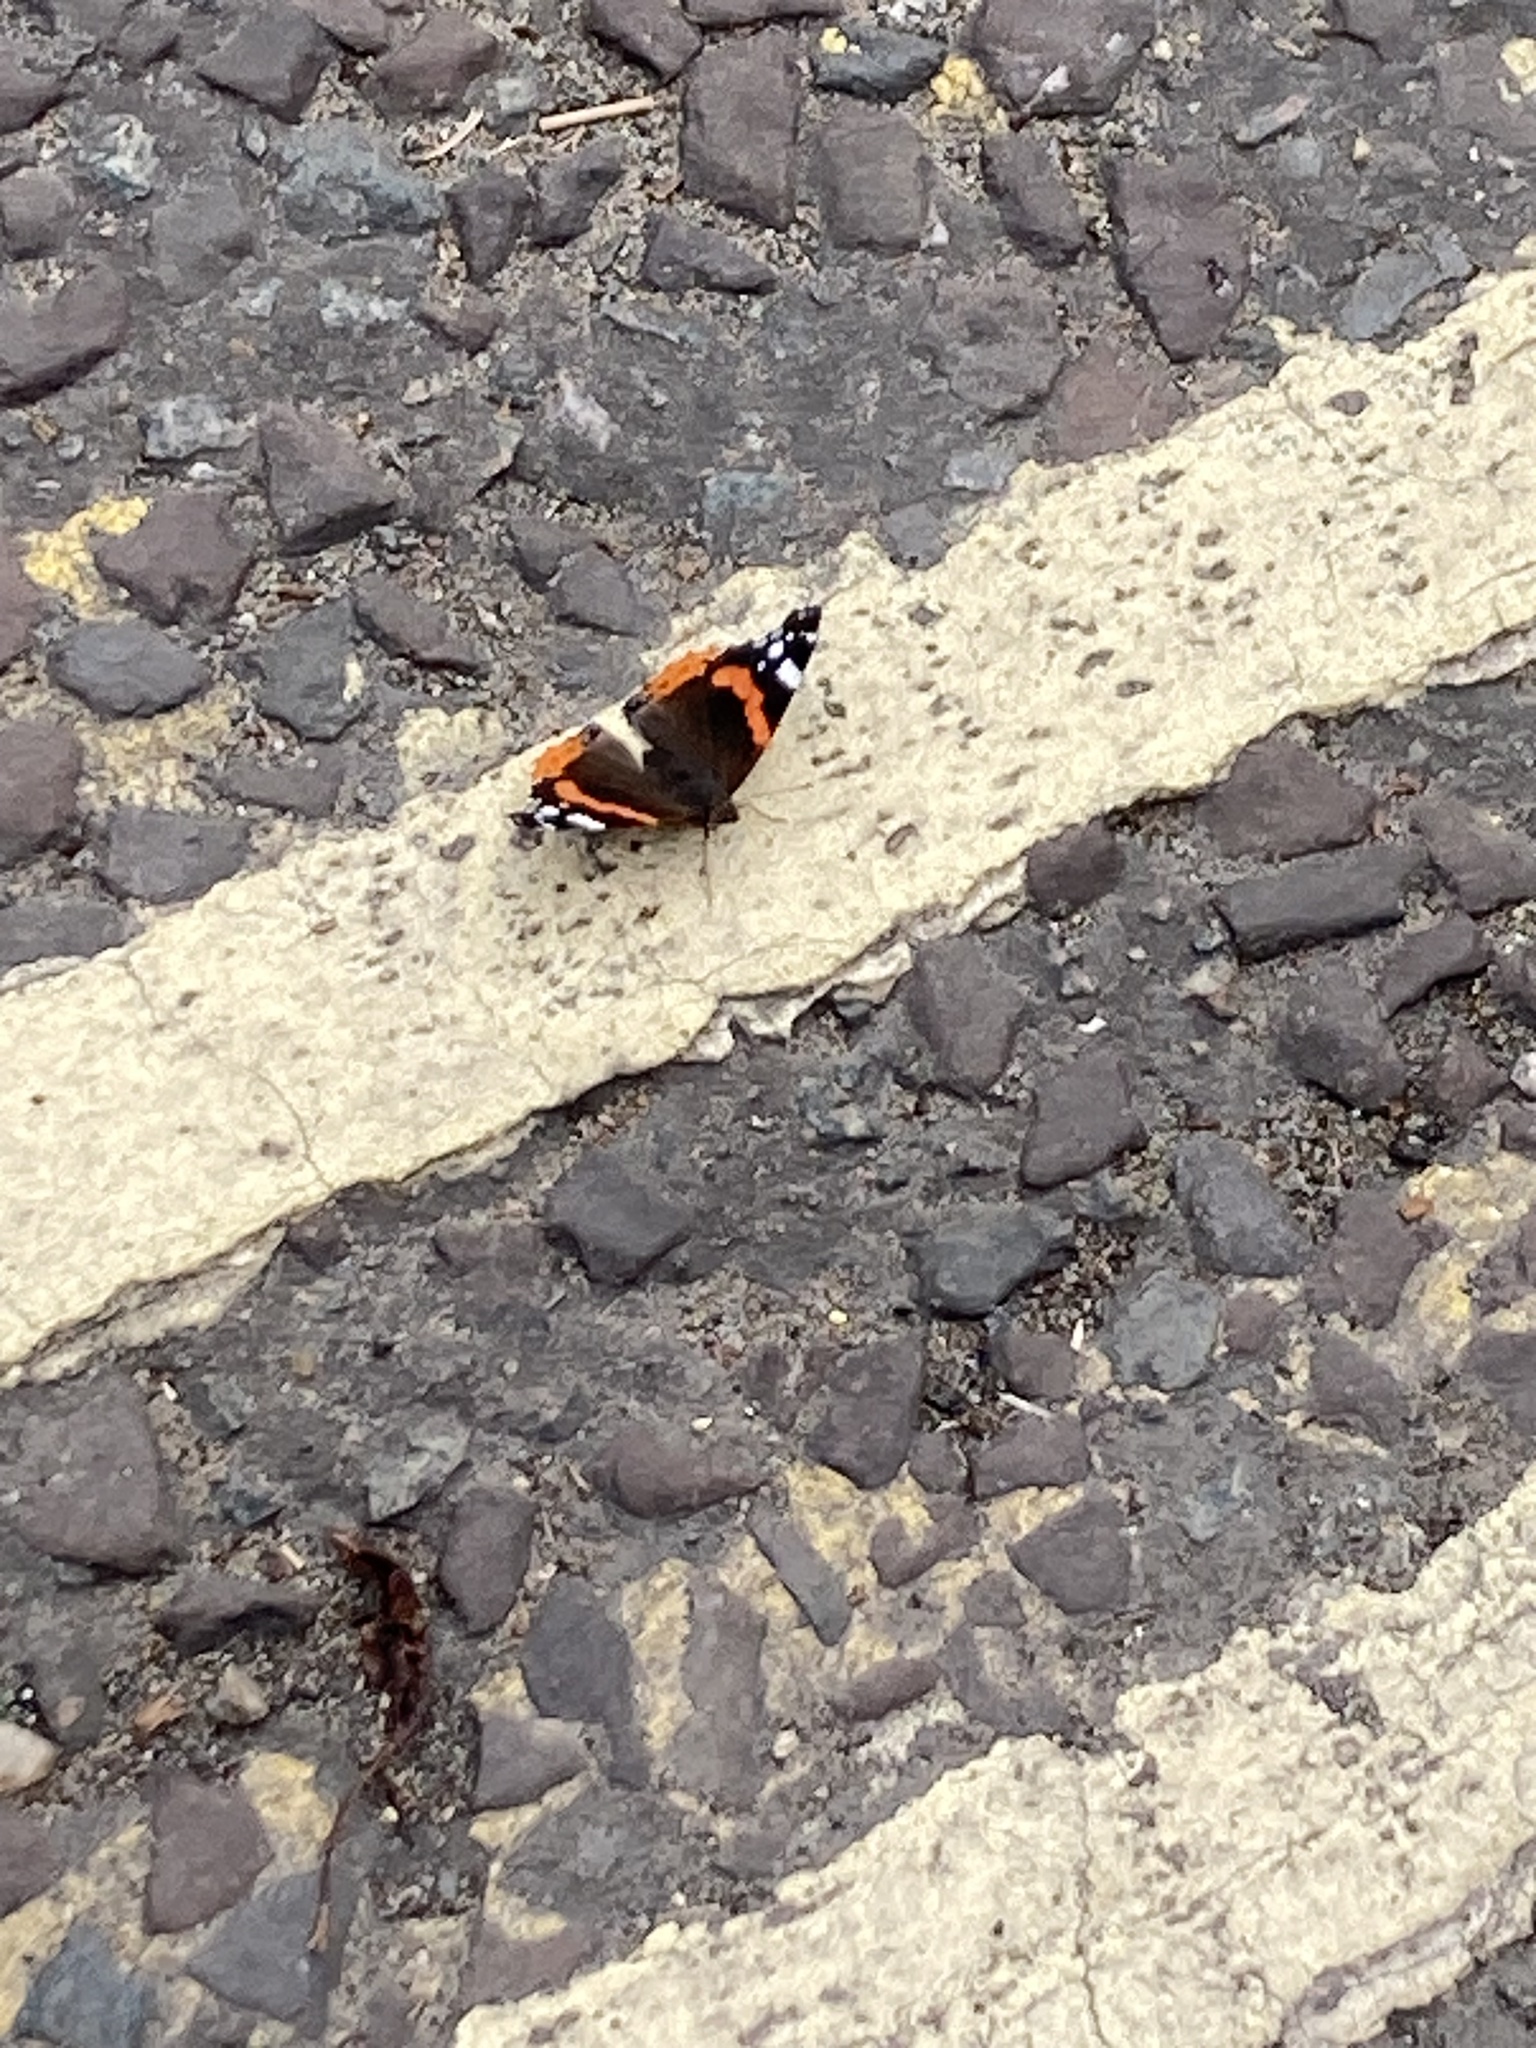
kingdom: Animalia
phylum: Arthropoda
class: Insecta
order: Lepidoptera
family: Nymphalidae
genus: Vanessa
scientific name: Vanessa atalanta
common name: Red admiral
